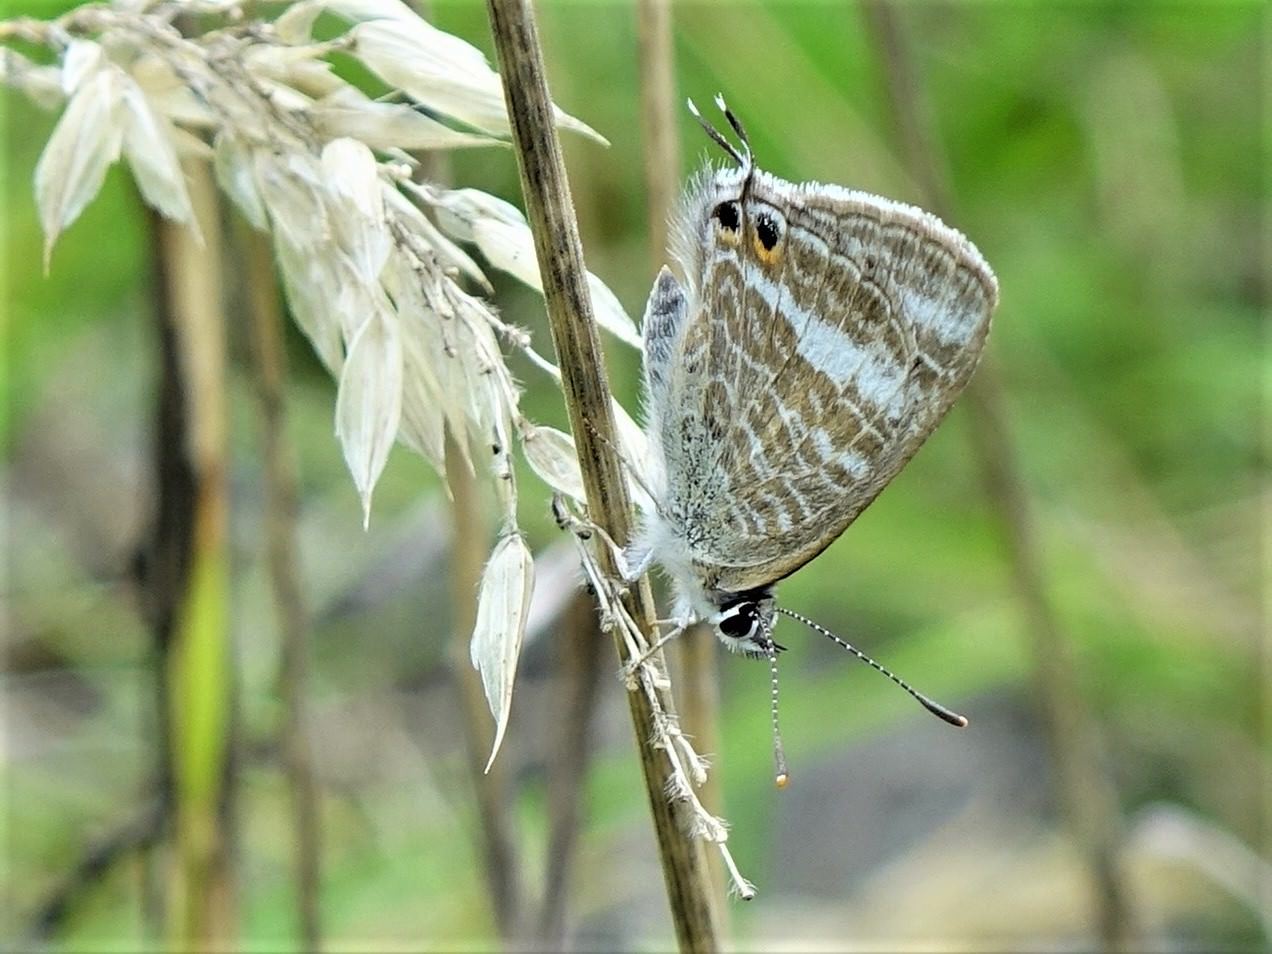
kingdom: Animalia
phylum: Arthropoda
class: Insecta
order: Lepidoptera
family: Lycaenidae
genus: Lampides
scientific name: Lampides boeticus
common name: Long-tailed blue
